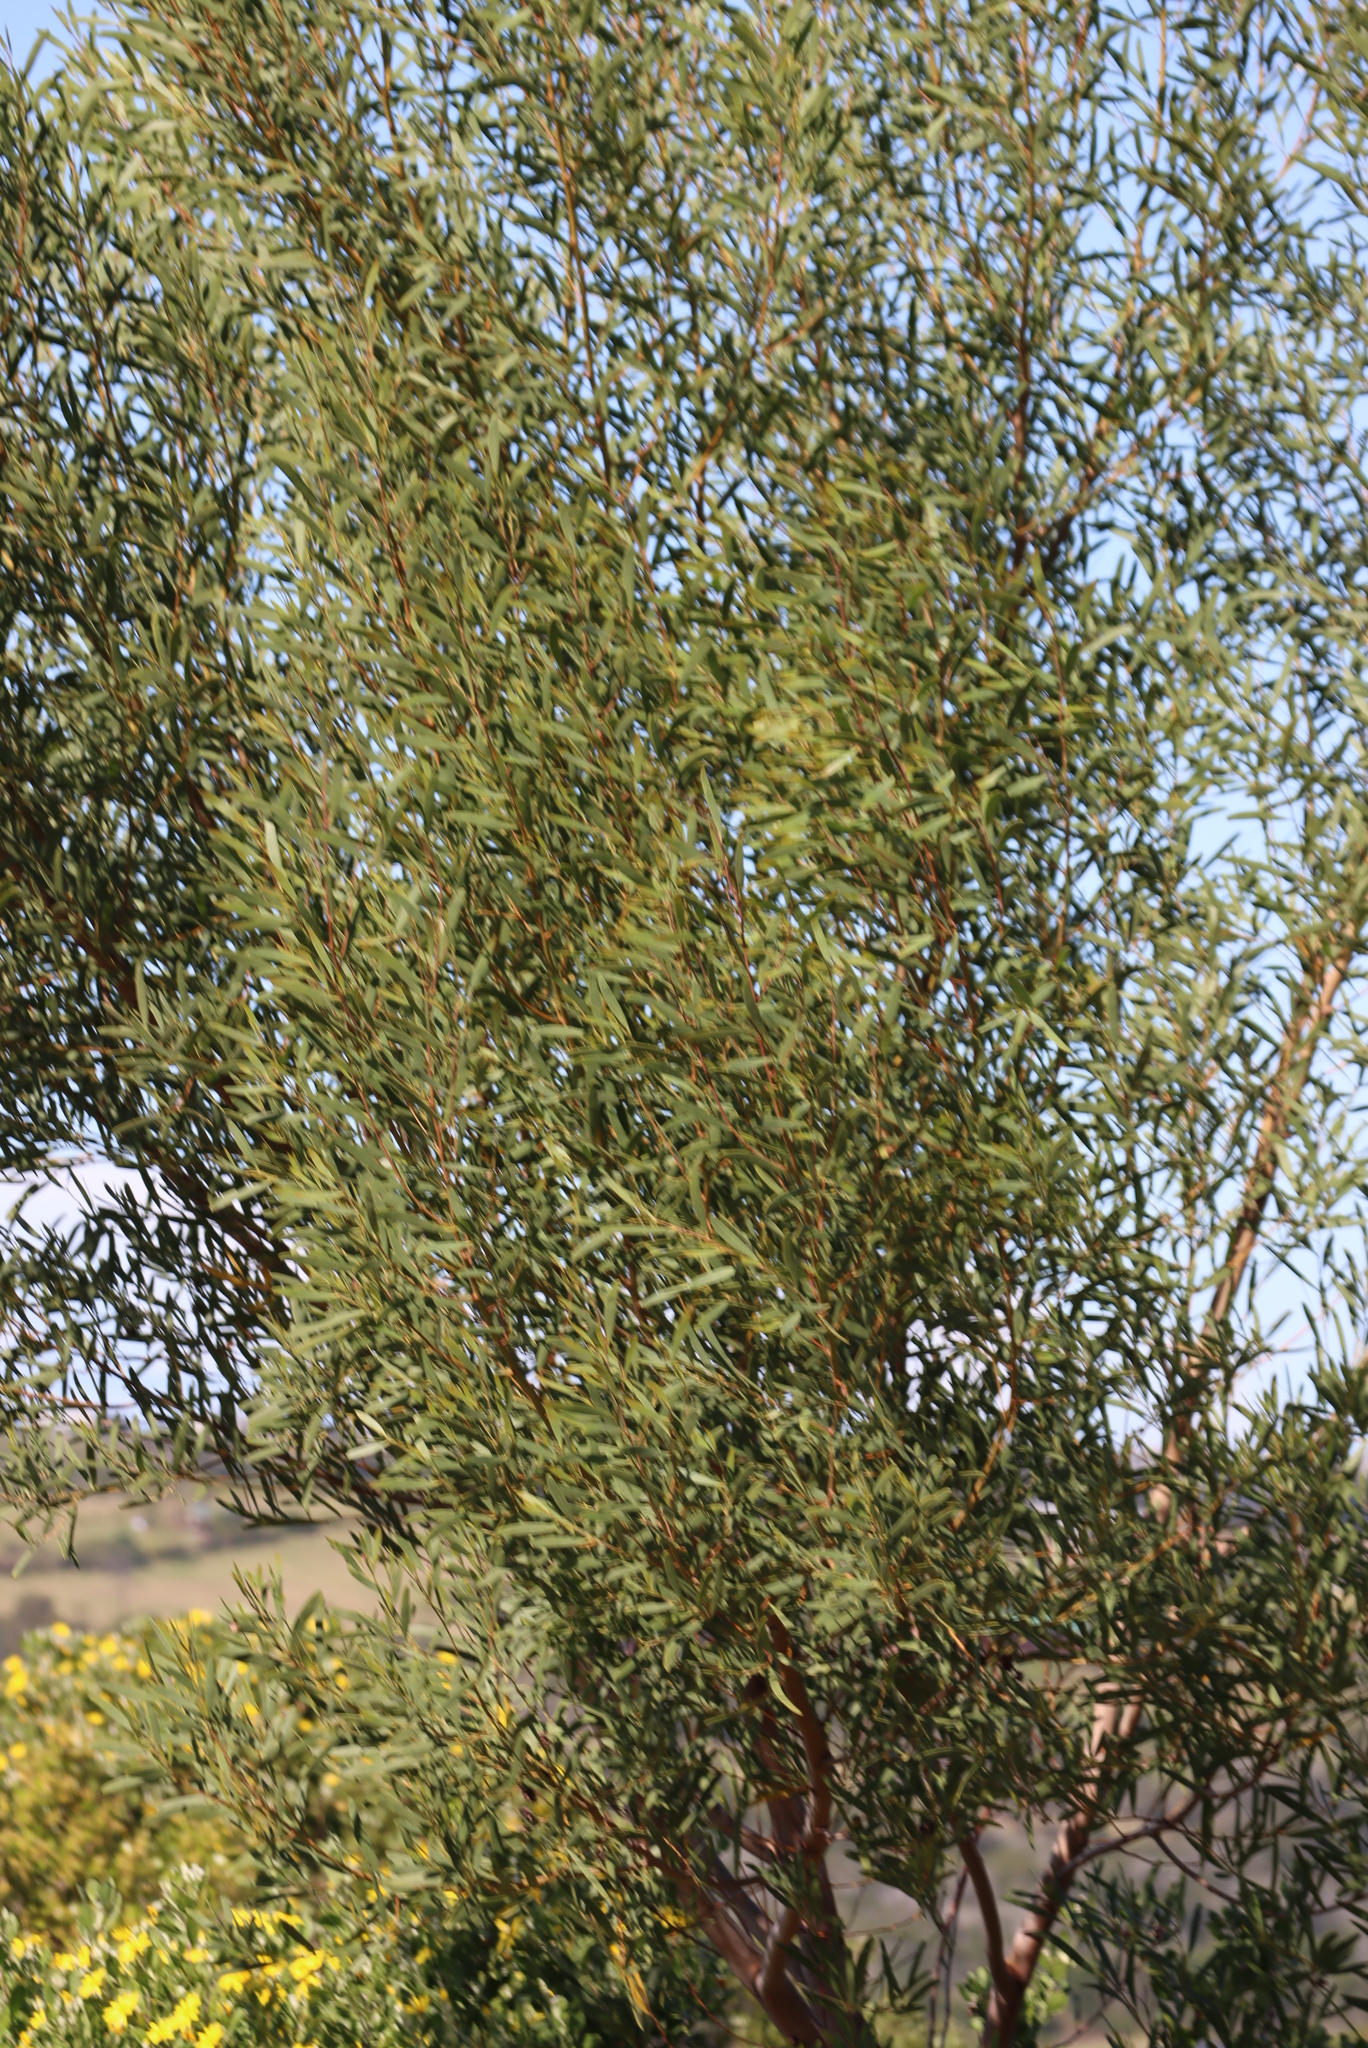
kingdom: Plantae
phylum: Tracheophyta
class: Magnoliopsida
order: Fabales
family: Fabaceae
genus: Acacia
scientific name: Acacia cyclops
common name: Coastal wattle
